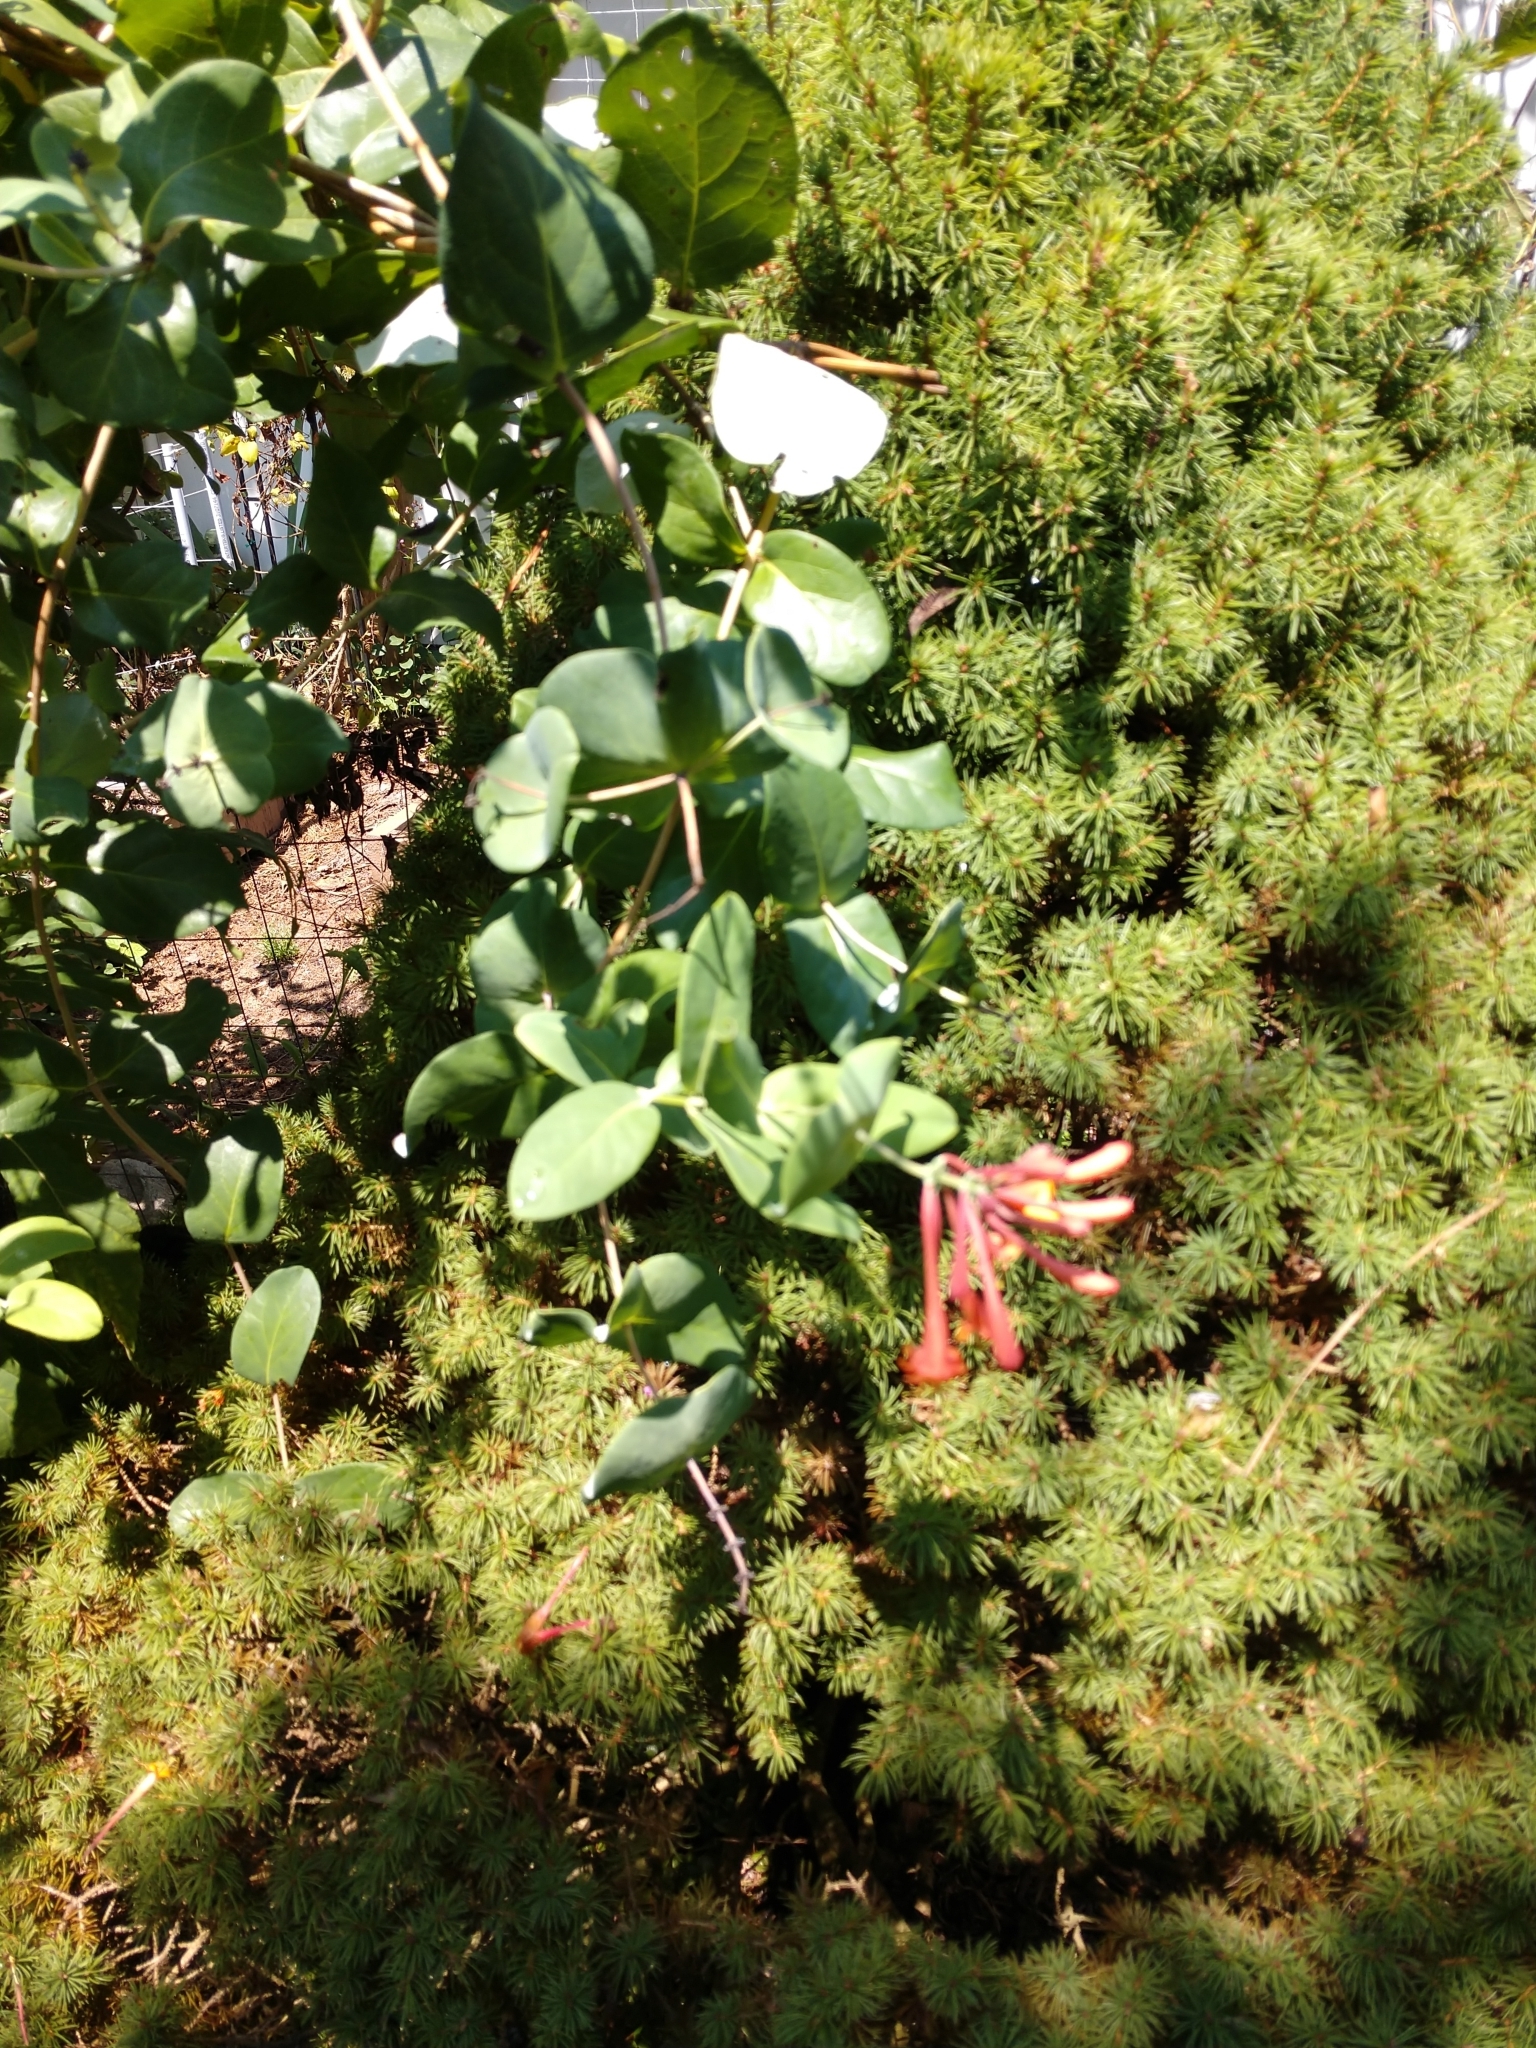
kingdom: Plantae
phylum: Tracheophyta
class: Magnoliopsida
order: Dipsacales
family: Caprifoliaceae
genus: Lonicera
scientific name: Lonicera sempervirens
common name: Coral honeysuckle
